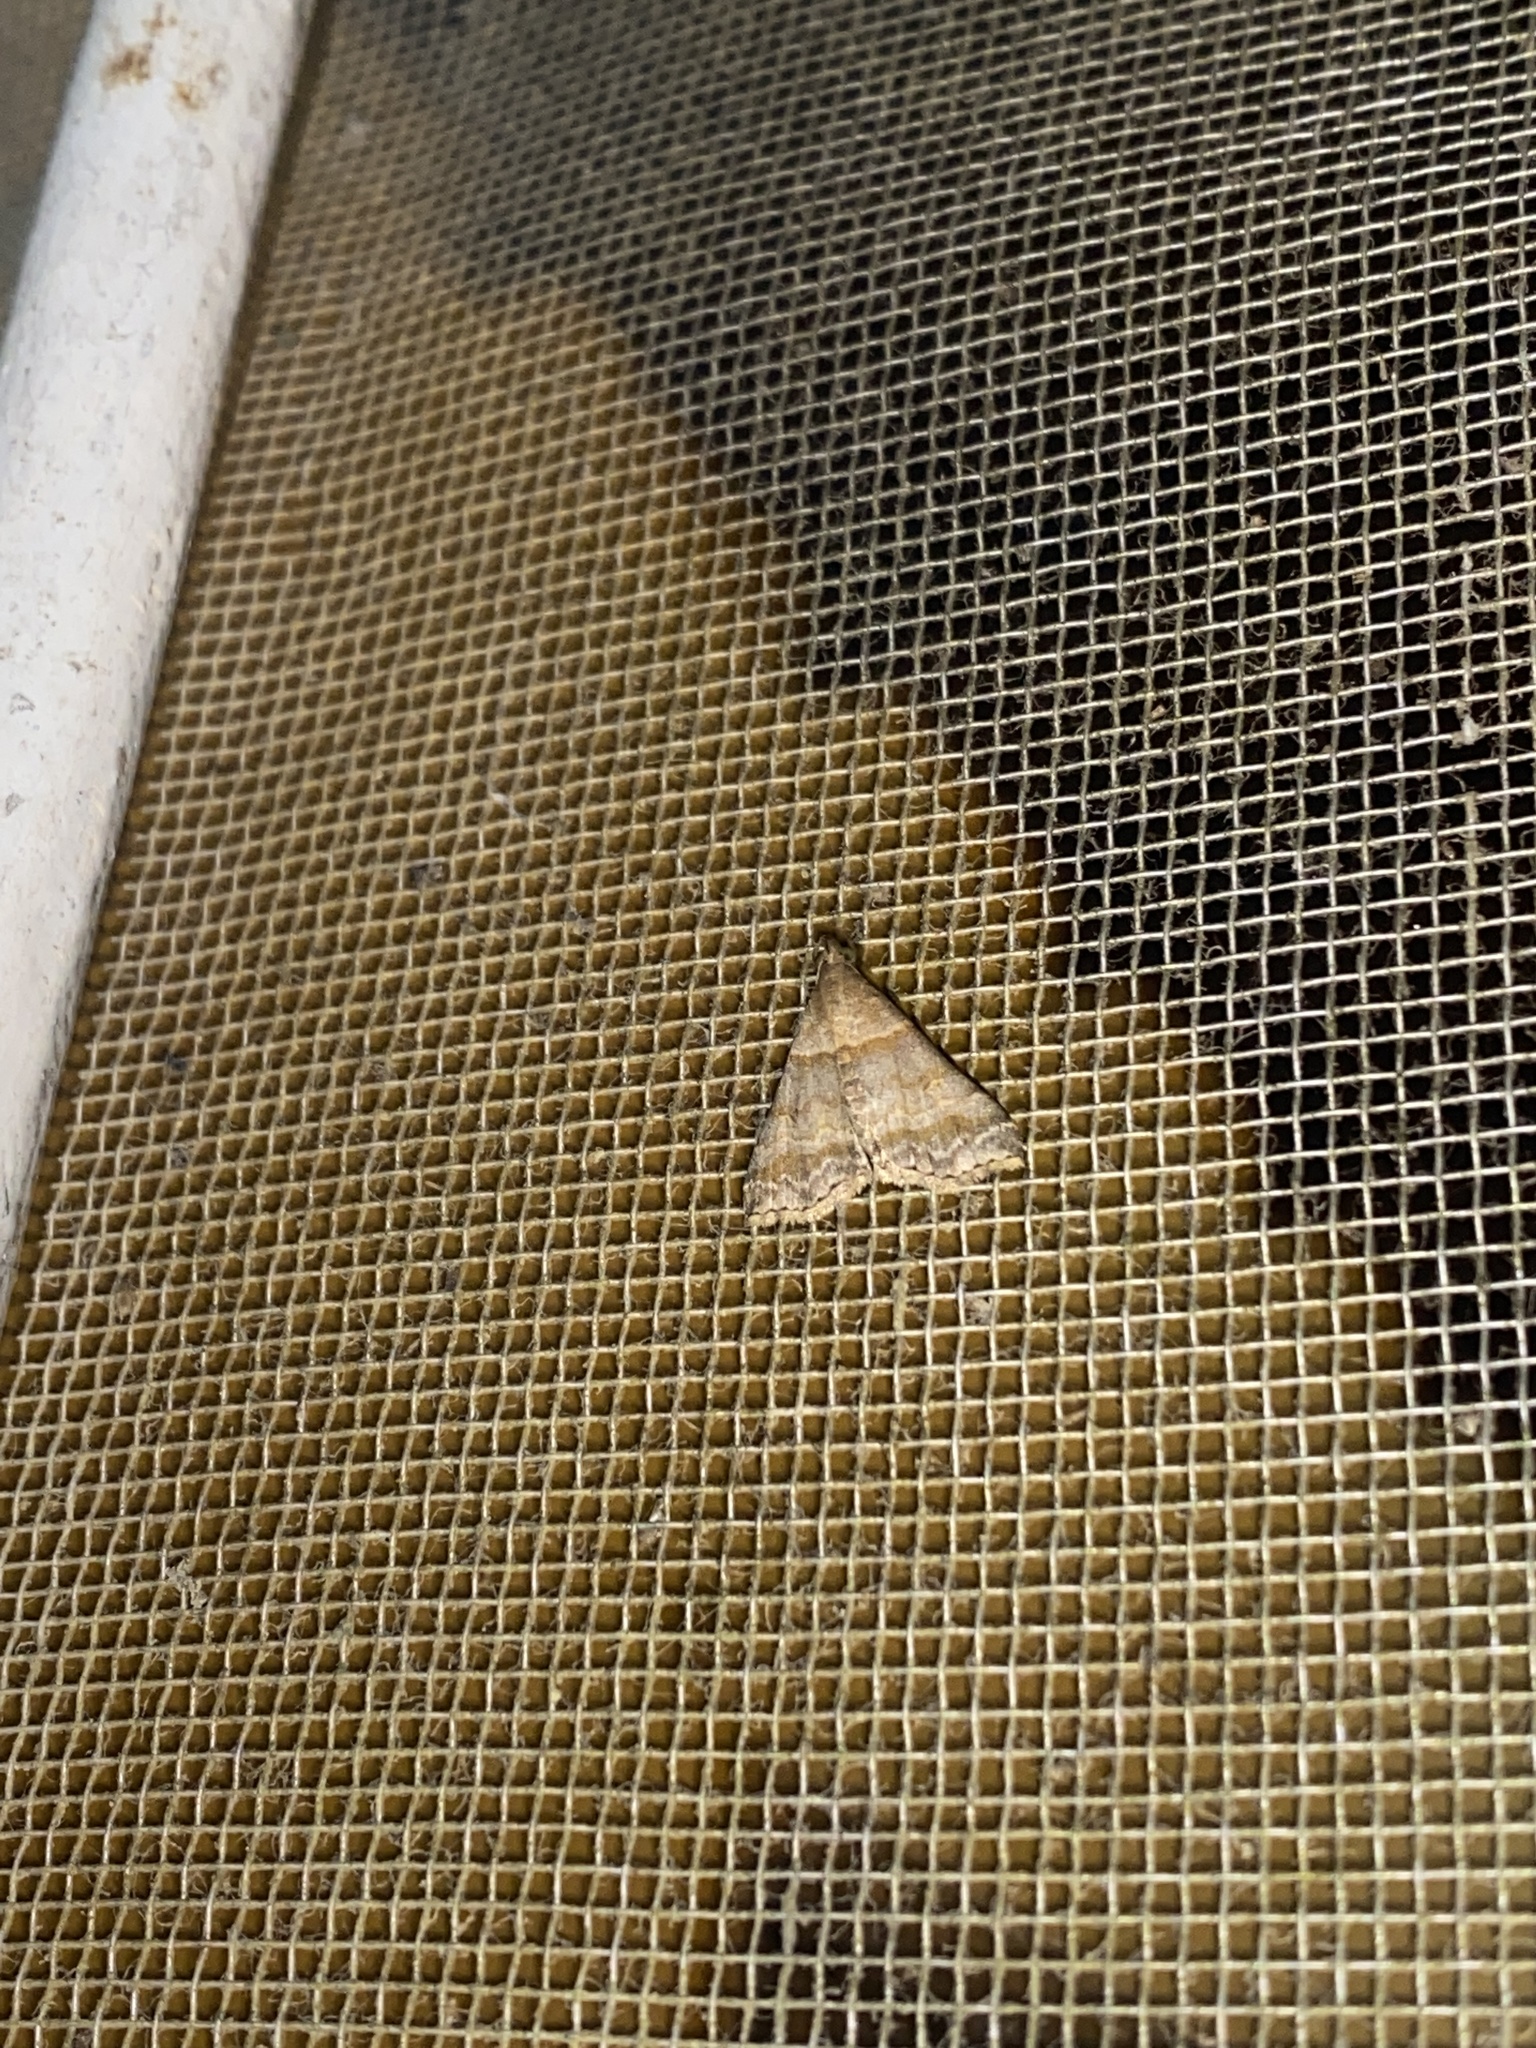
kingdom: Animalia
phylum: Arthropoda
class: Insecta
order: Lepidoptera
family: Erebidae
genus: Heterogramma
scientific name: Heterogramma circumflexalis
